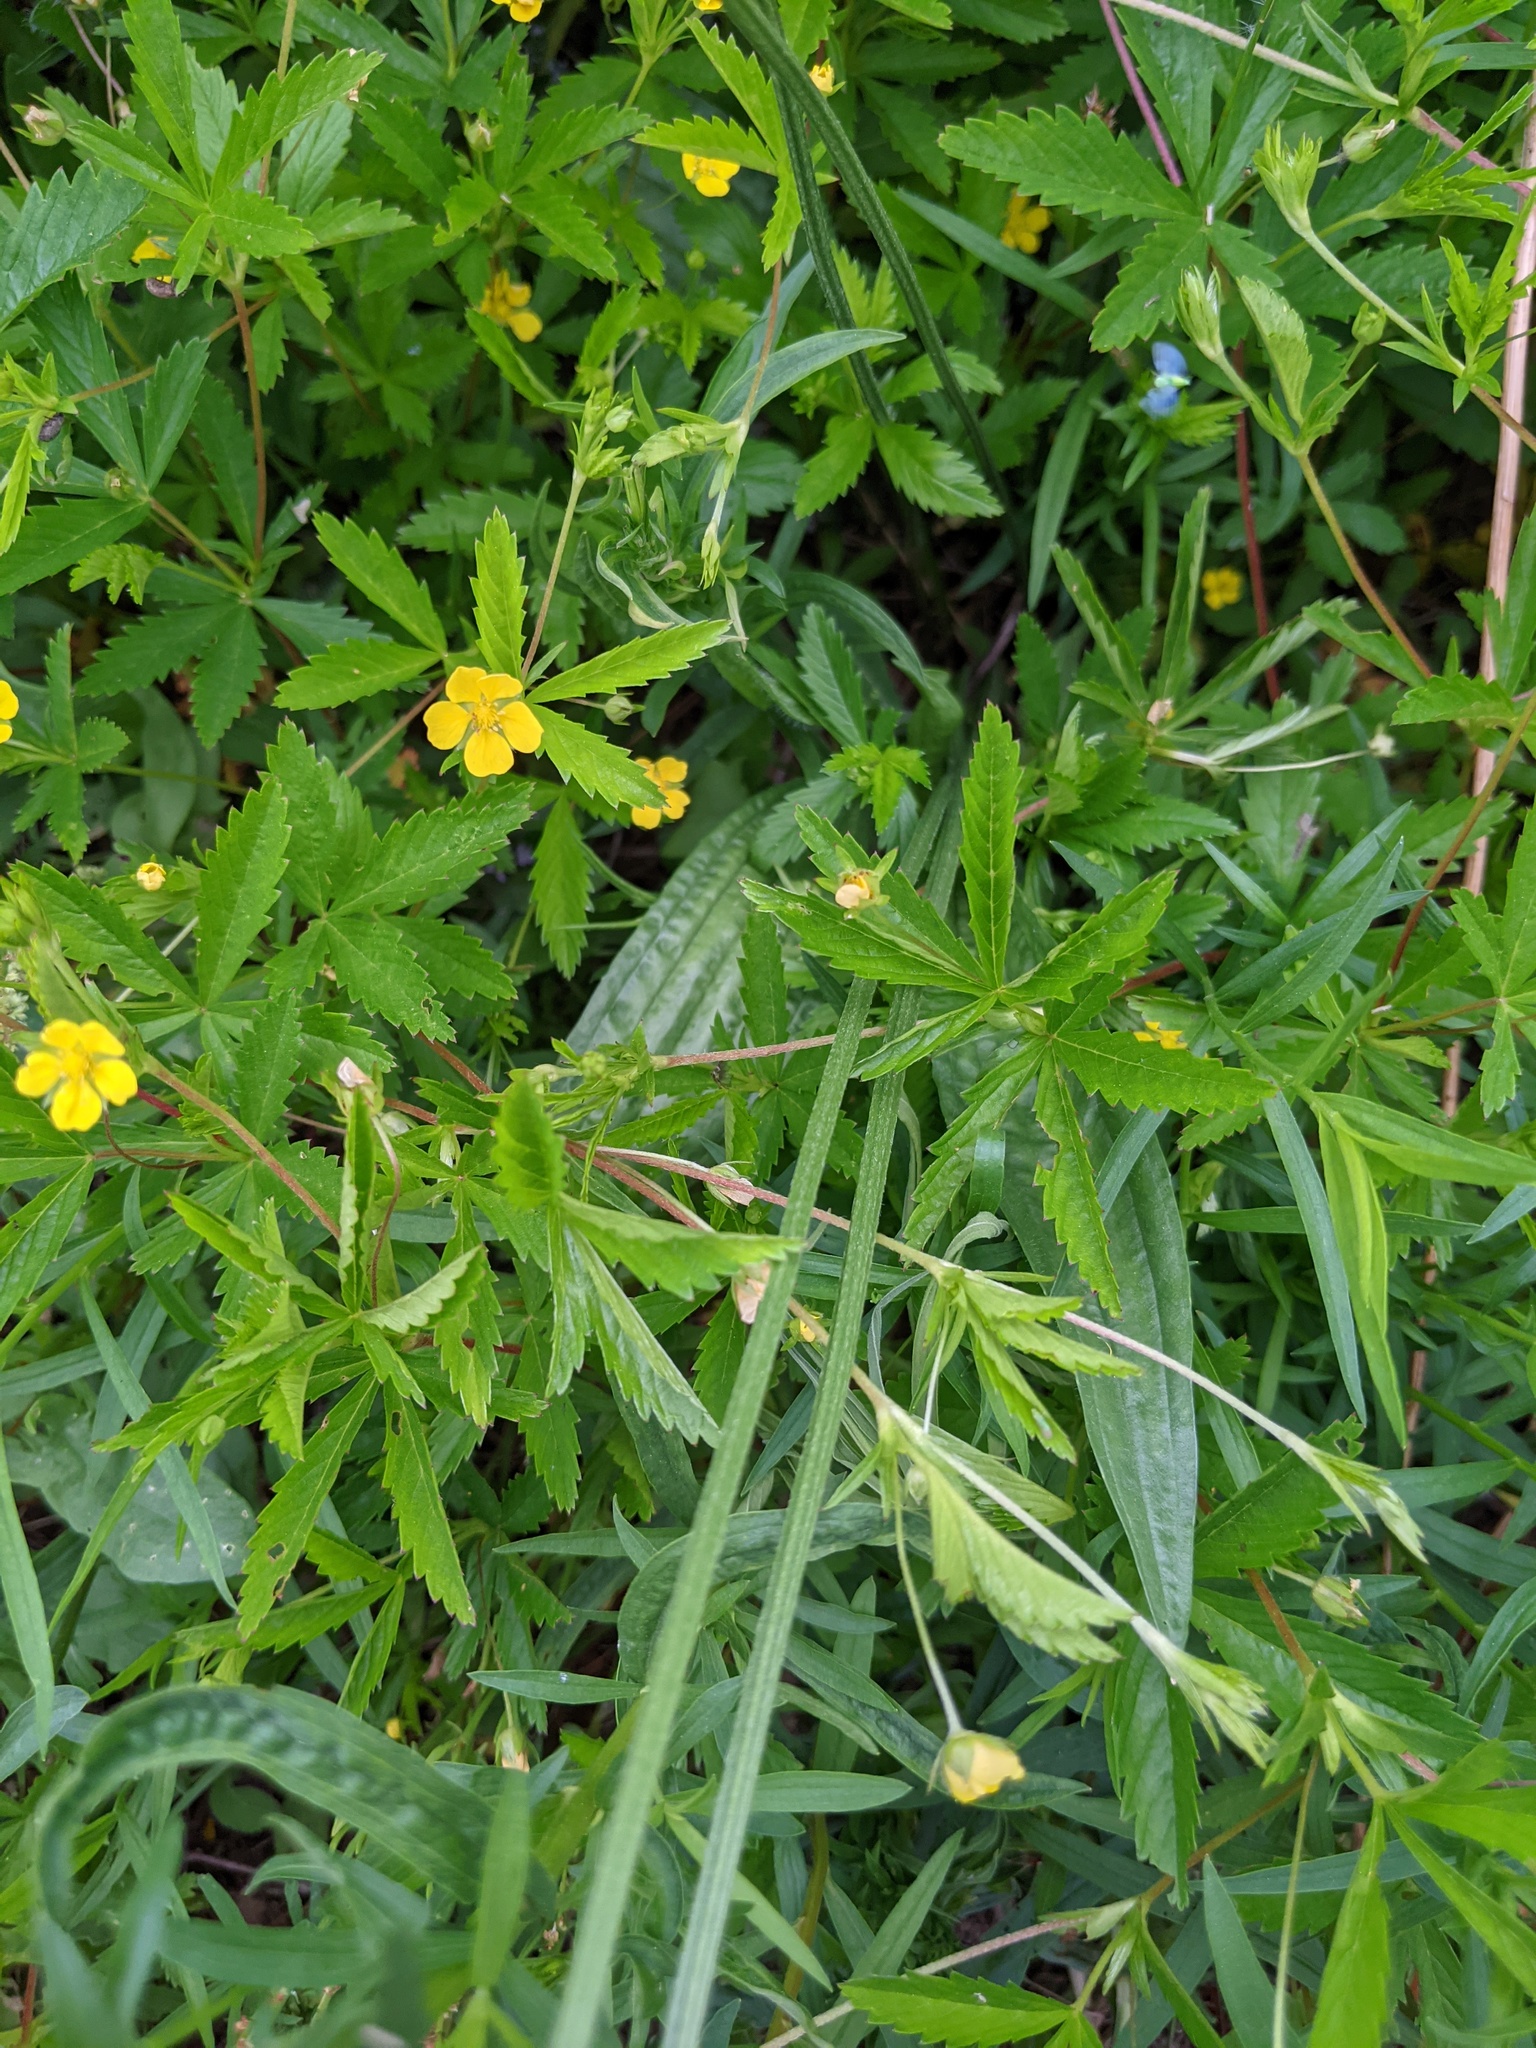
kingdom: Plantae
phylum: Tracheophyta
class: Magnoliopsida
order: Lamiales
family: Plantaginaceae
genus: Plantago
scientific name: Plantago lanceolata
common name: Ribwort plantain
